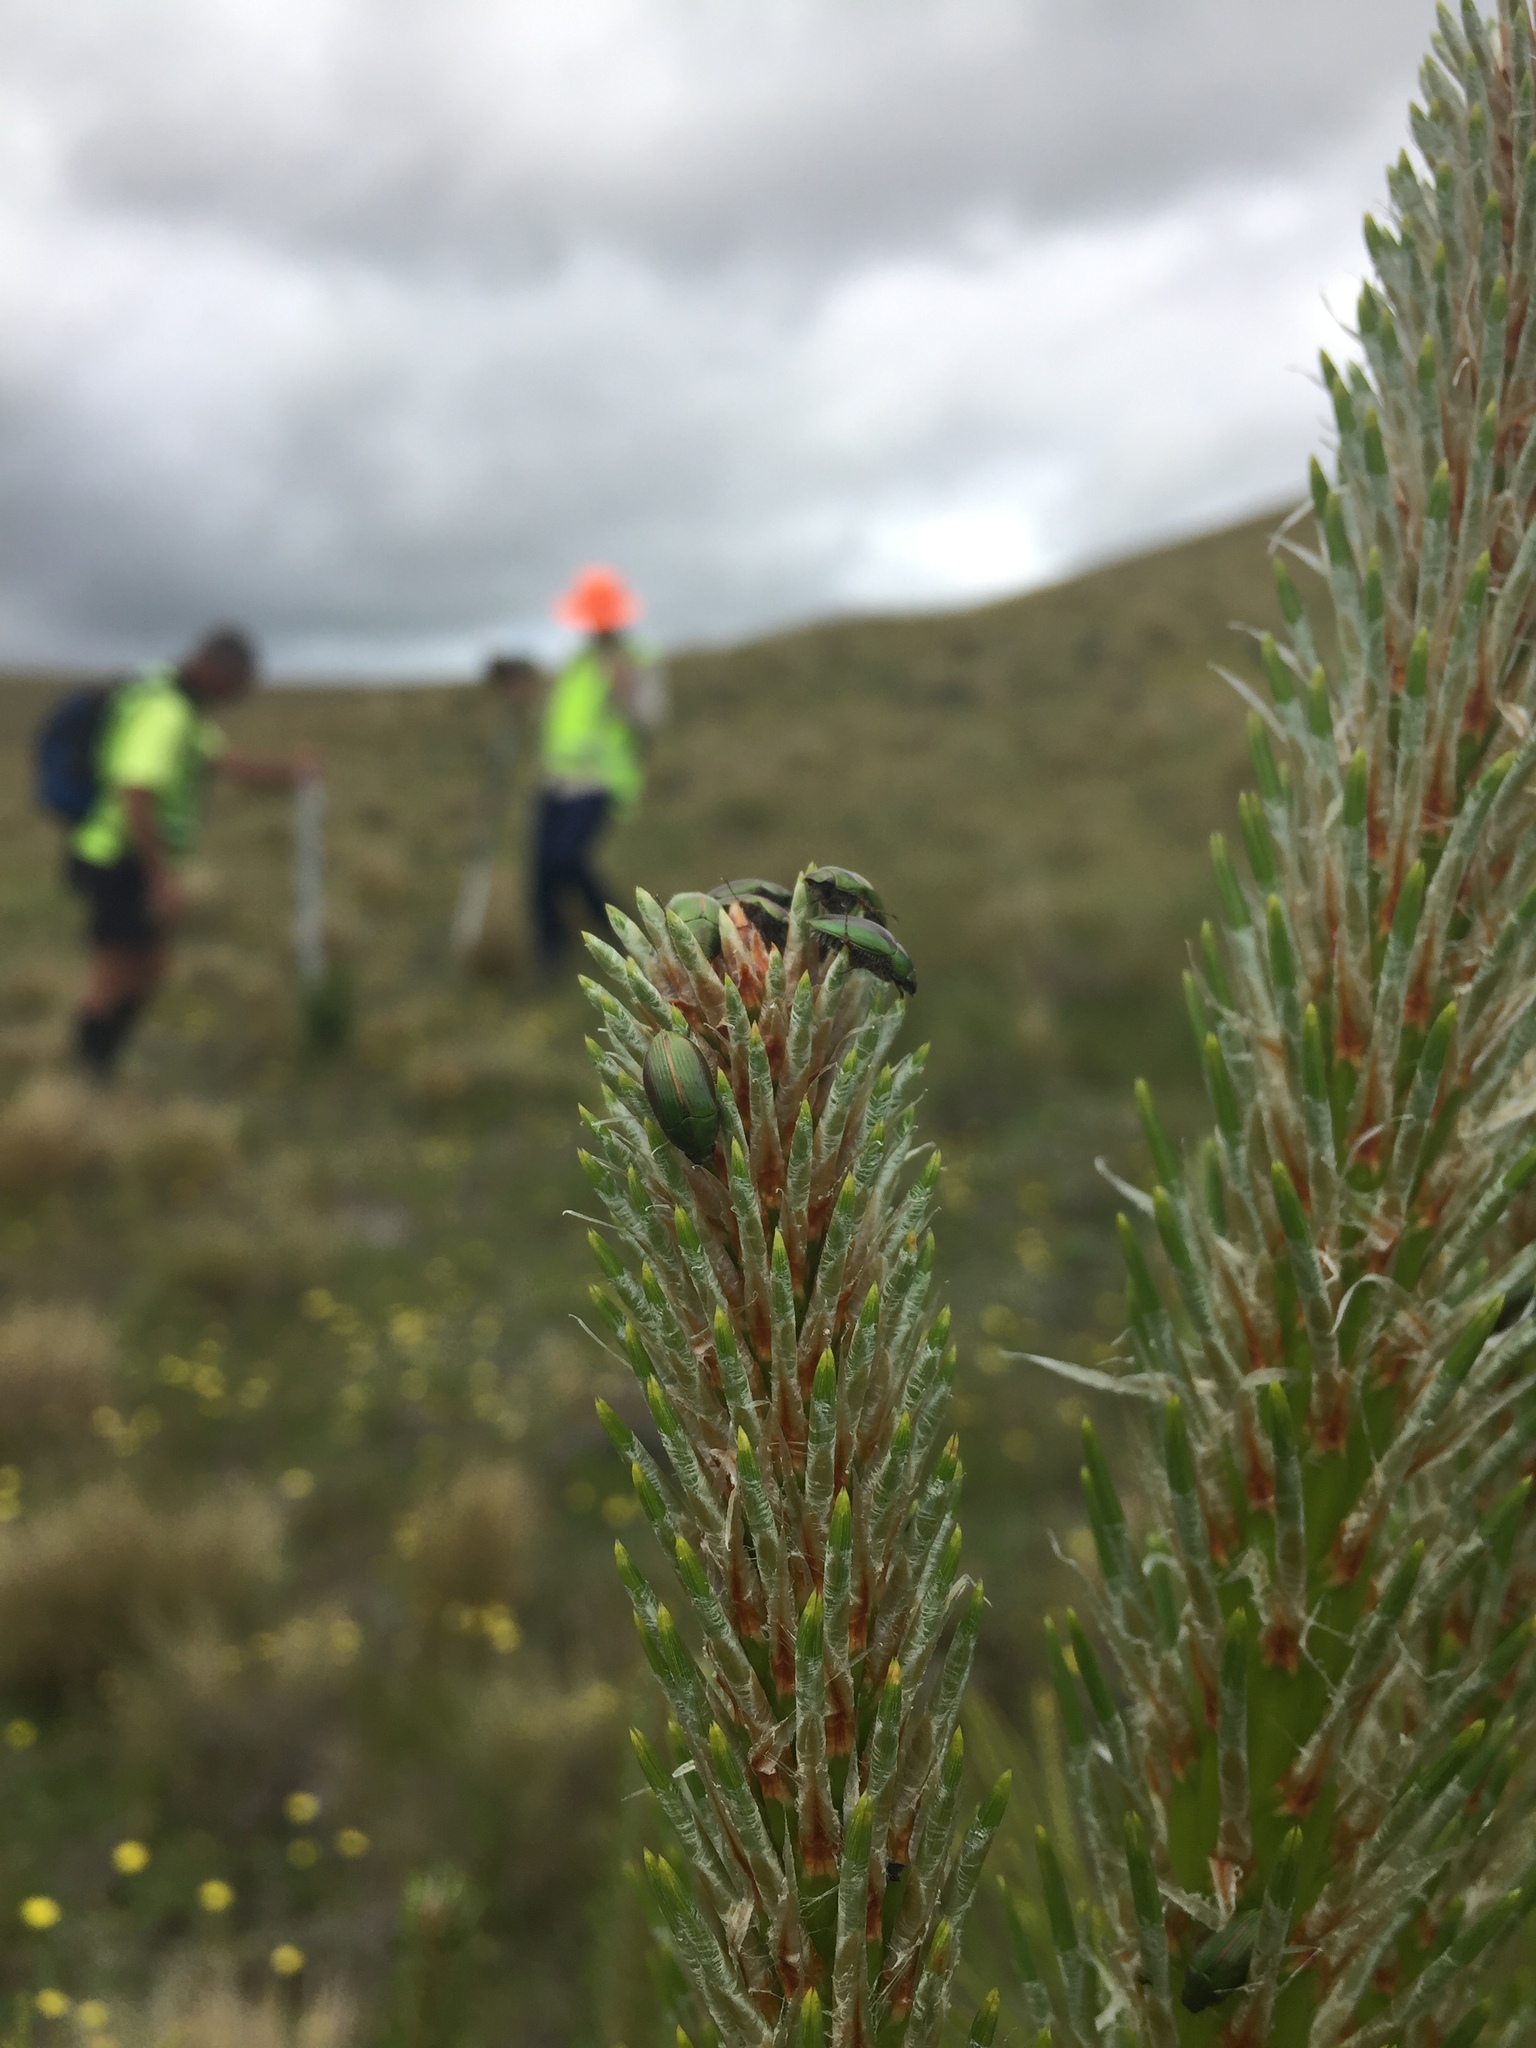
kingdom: Animalia
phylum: Arthropoda
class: Insecta
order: Coleoptera
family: Scarabaeidae
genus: Pyronota
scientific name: Pyronota edwardsi
